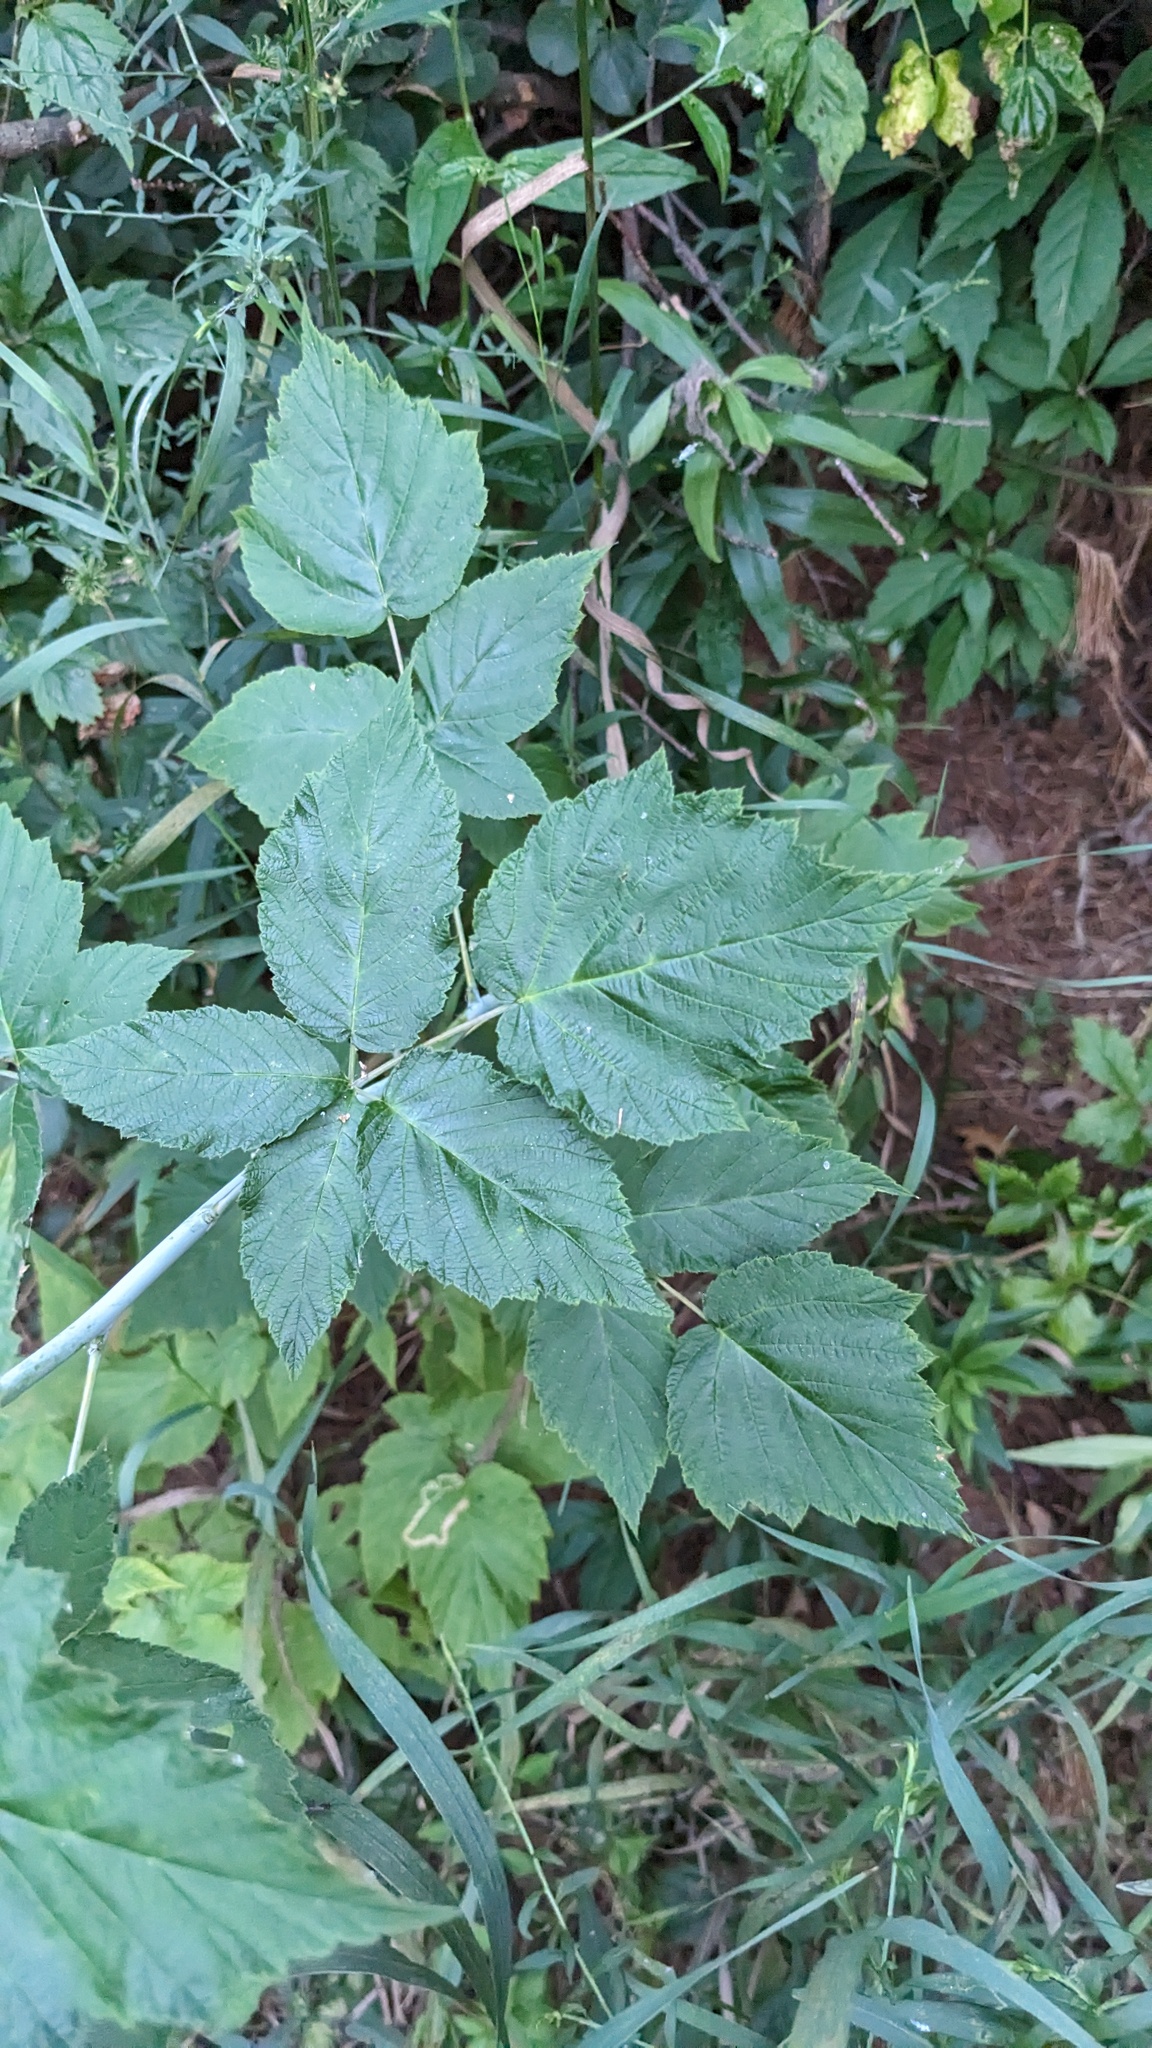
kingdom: Plantae
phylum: Tracheophyta
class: Magnoliopsida
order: Rosales
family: Rosaceae
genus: Rubus
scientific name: Rubus occidentalis
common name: Black raspberry
